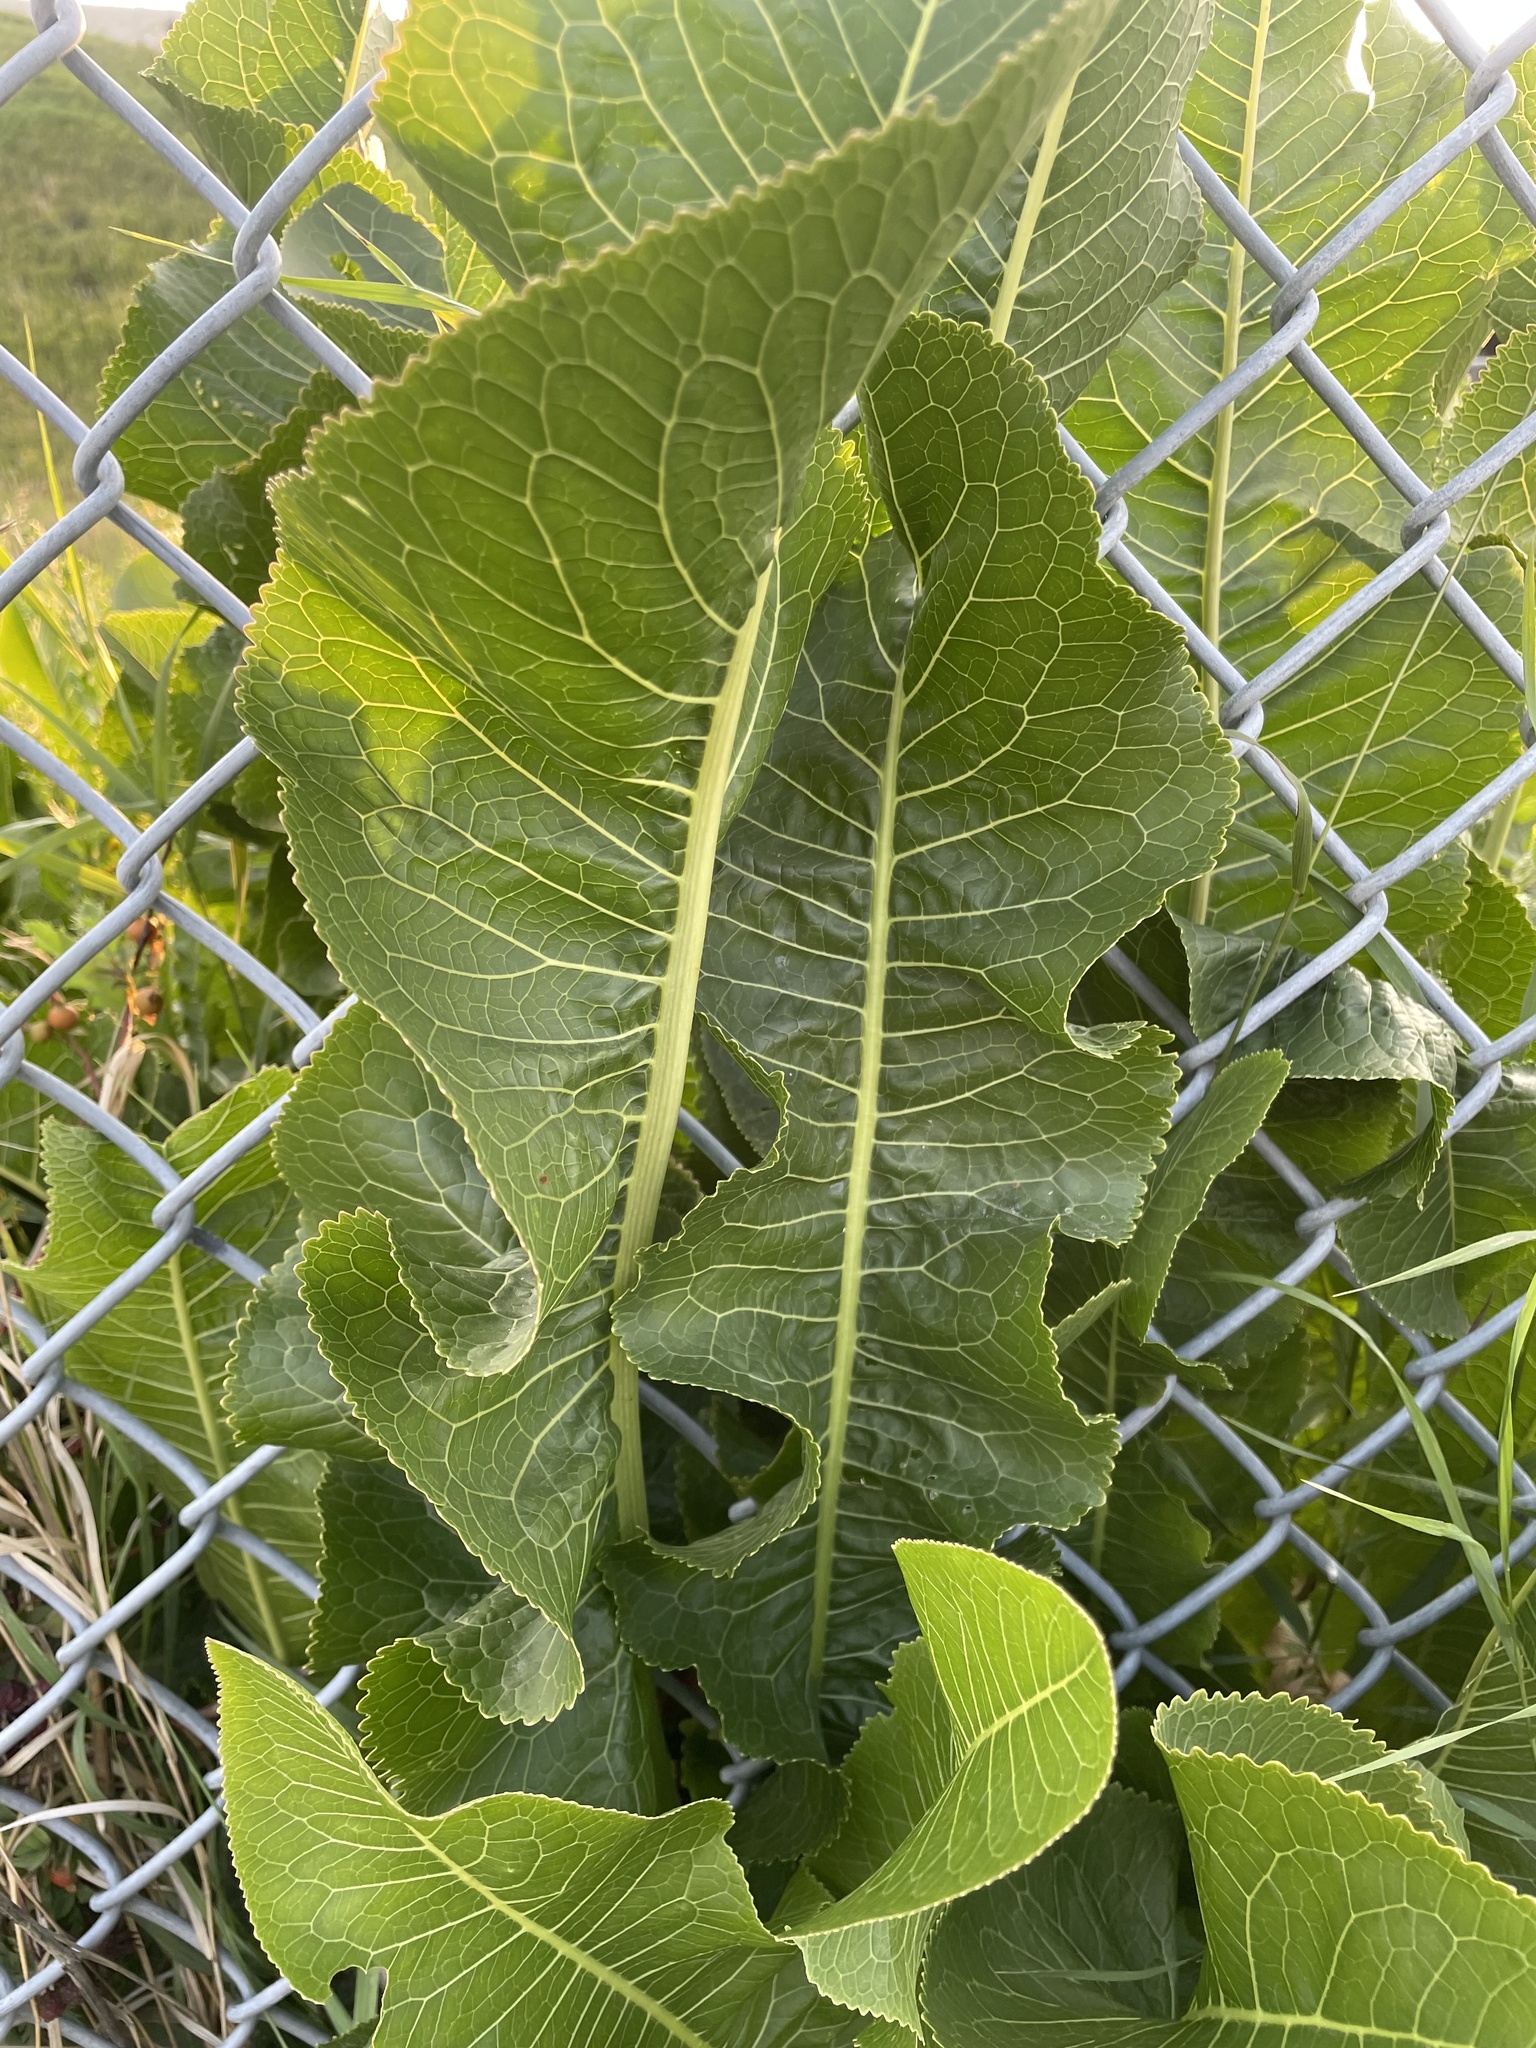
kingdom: Plantae
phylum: Tracheophyta
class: Magnoliopsida
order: Brassicales
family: Brassicaceae
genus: Armoracia
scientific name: Armoracia rusticana
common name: Horseradish
